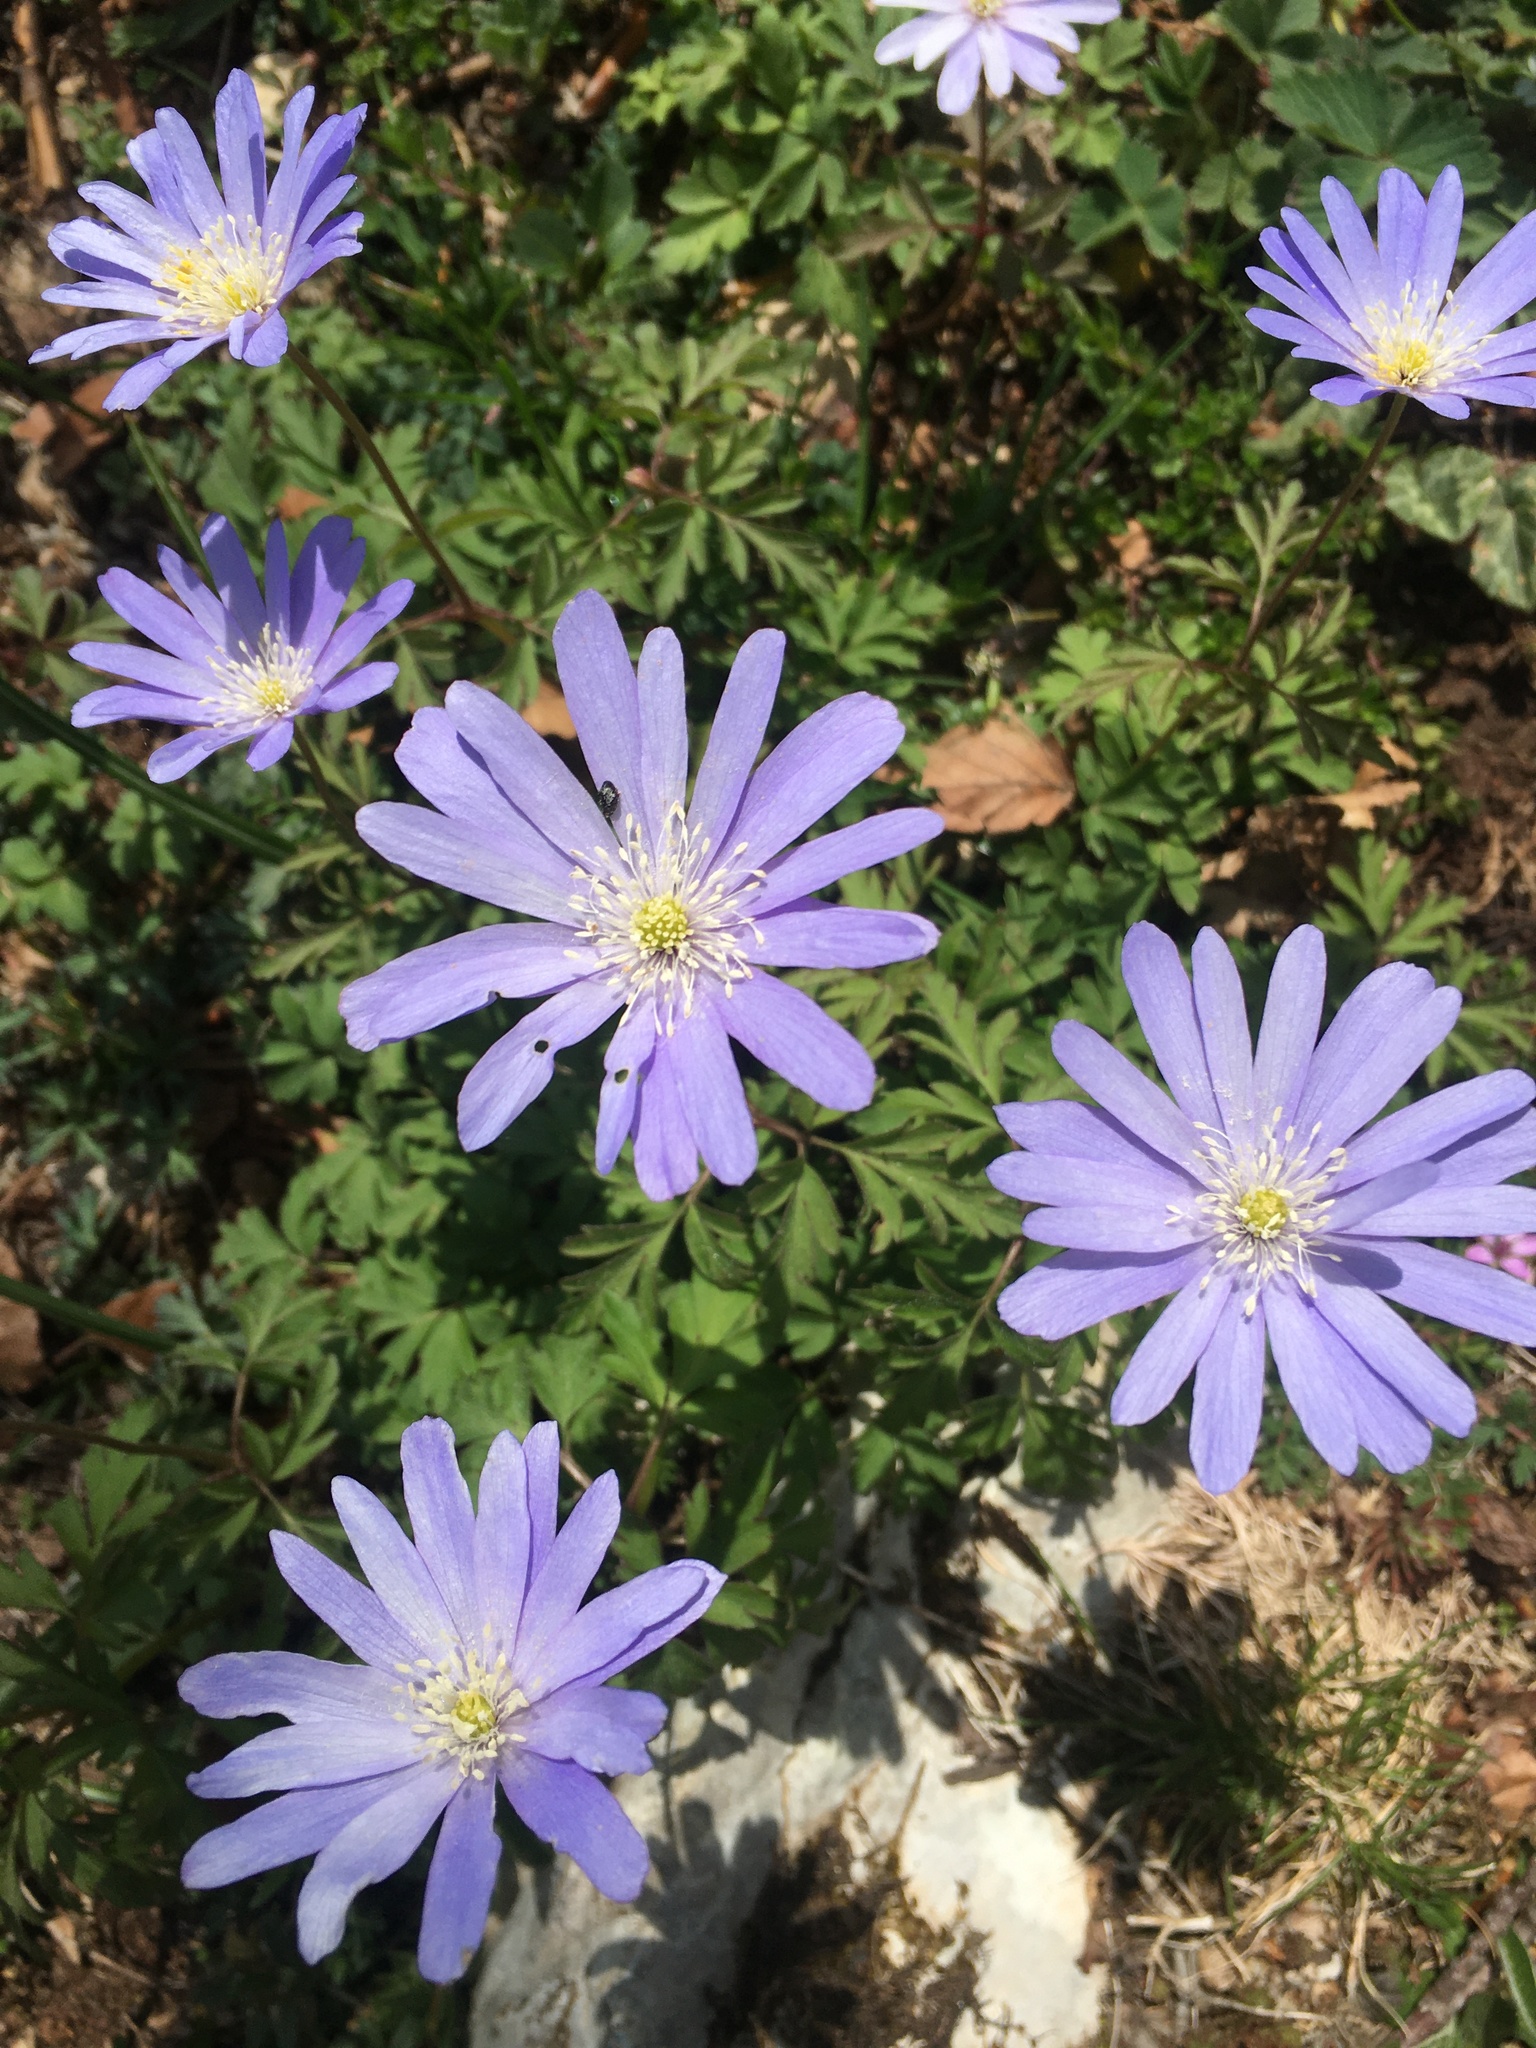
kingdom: Plantae
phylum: Tracheophyta
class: Magnoliopsida
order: Ranunculales
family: Ranunculaceae
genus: Anemone
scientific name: Anemone apennina
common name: Blue anemone
